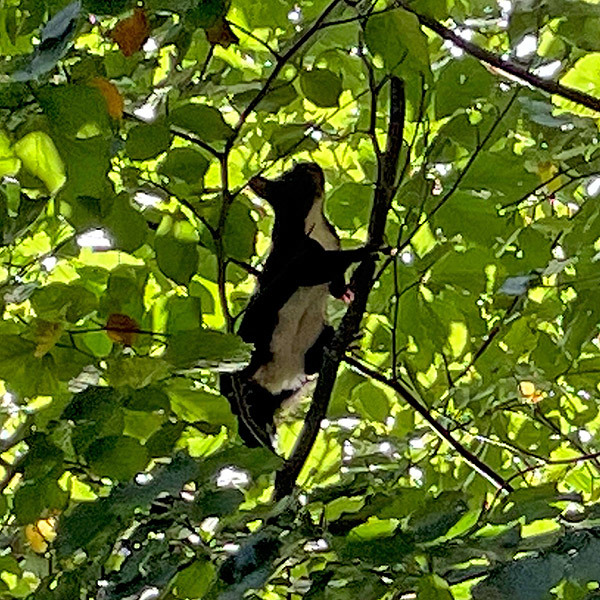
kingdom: Animalia
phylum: Chordata
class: Mammalia
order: Rodentia
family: Sciuridae
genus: Sciurus
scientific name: Sciurus vulgaris
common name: Eurasian red squirrel
